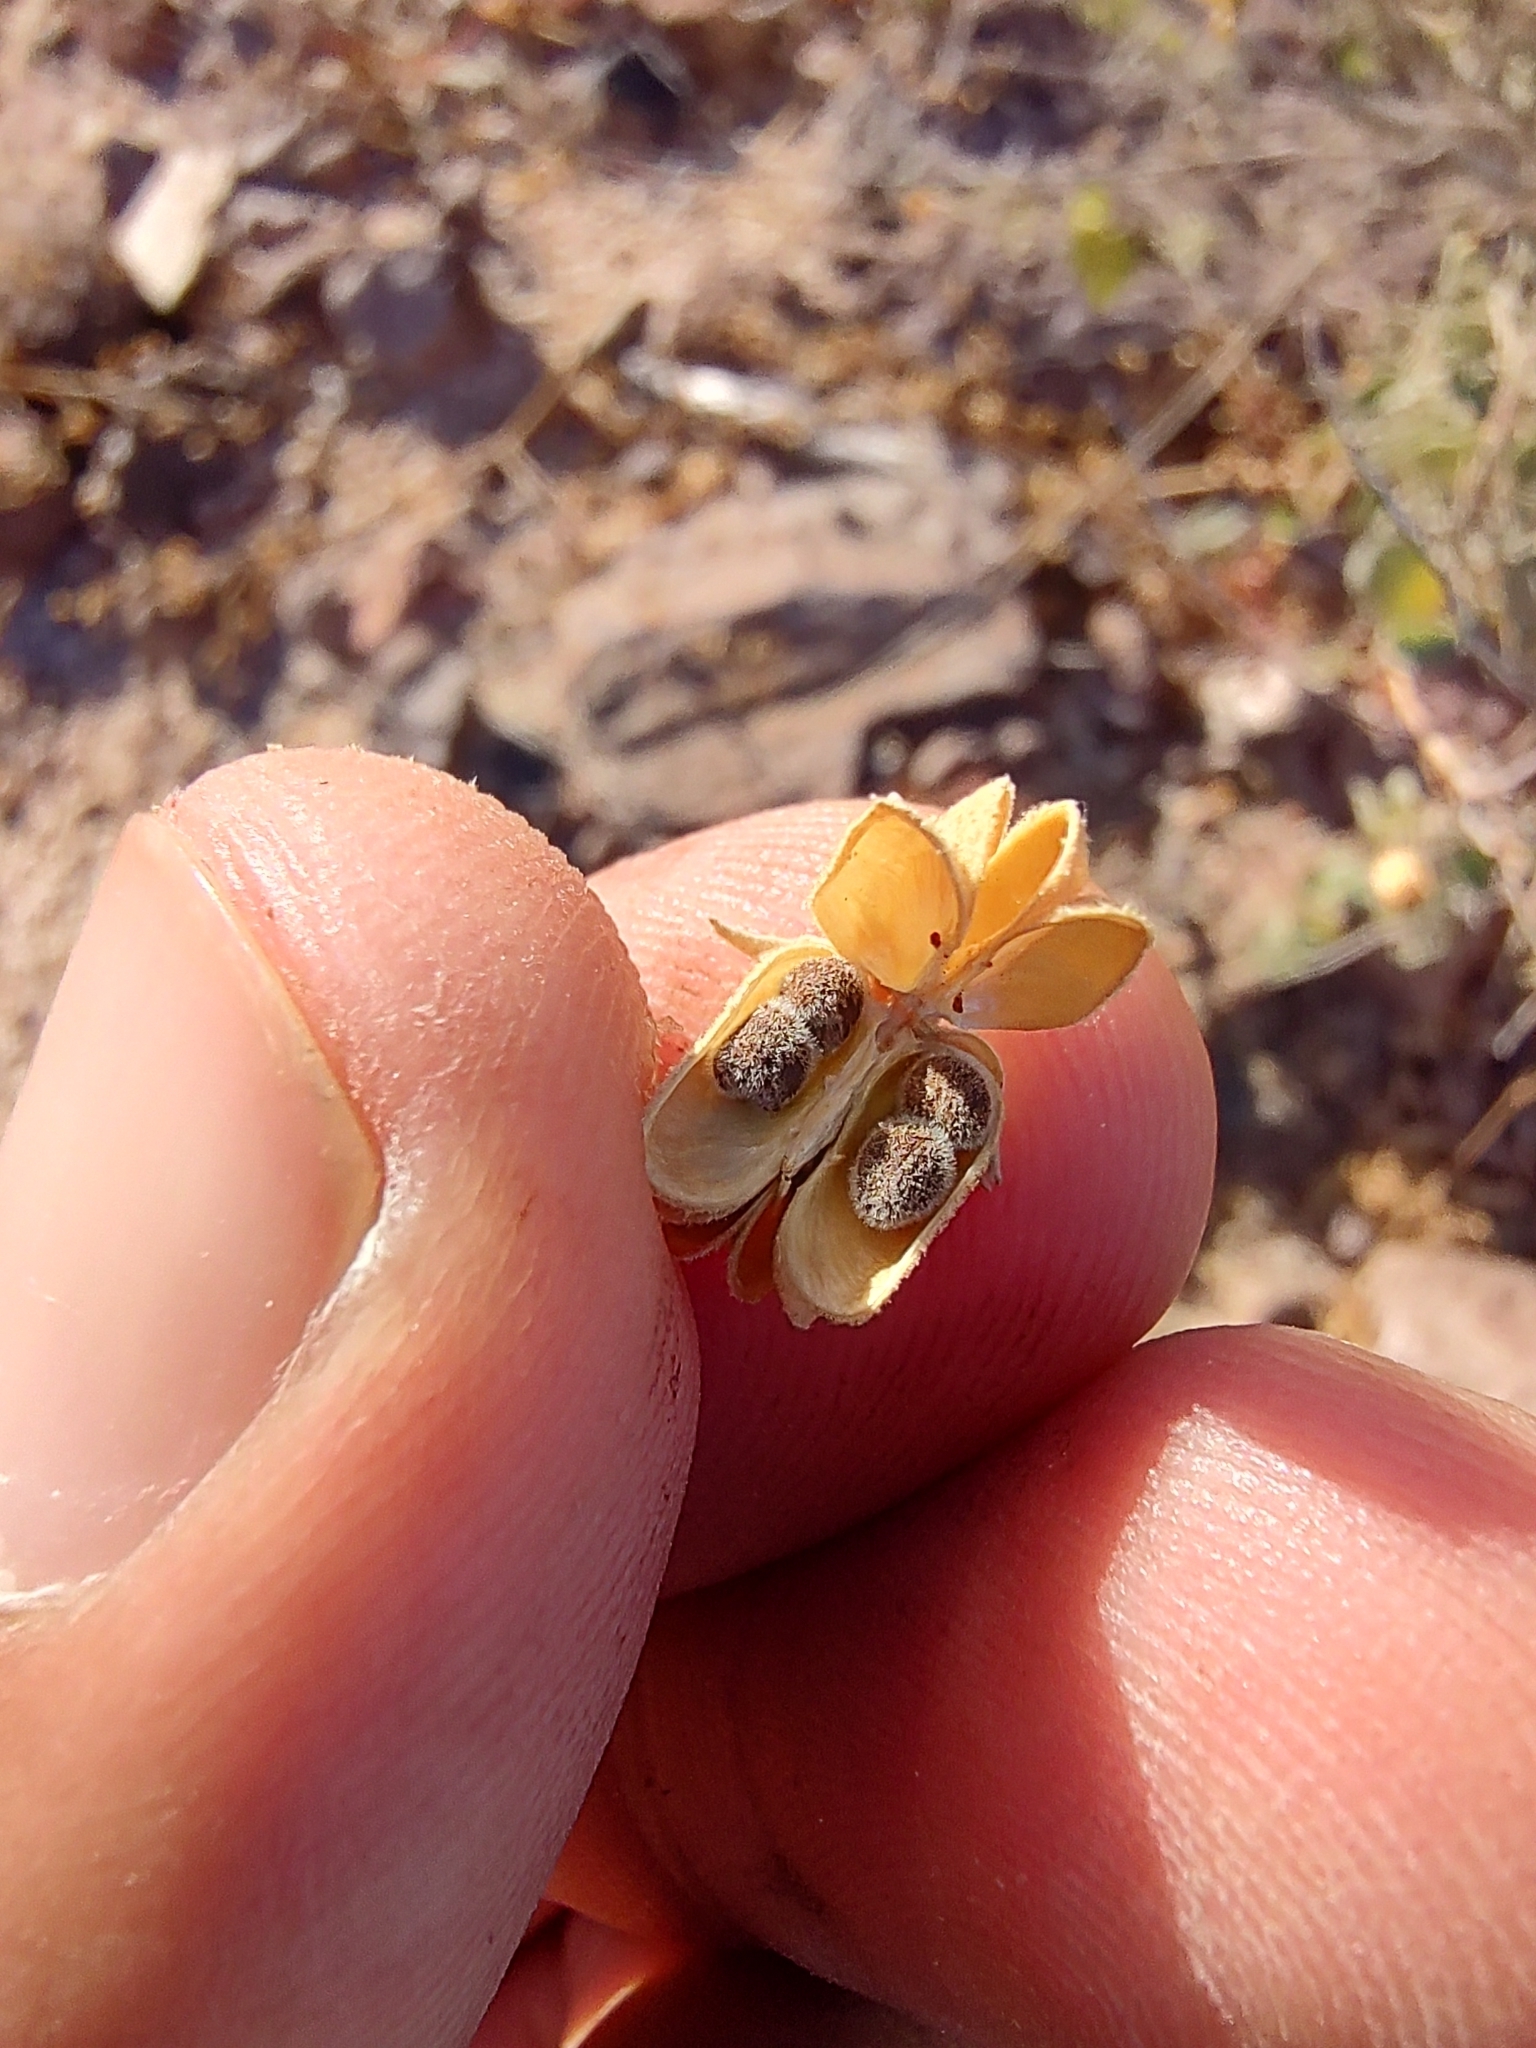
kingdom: Plantae
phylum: Tracheophyta
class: Magnoliopsida
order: Malvales
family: Malvaceae
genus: Abutilon
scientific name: Abutilon incanum
